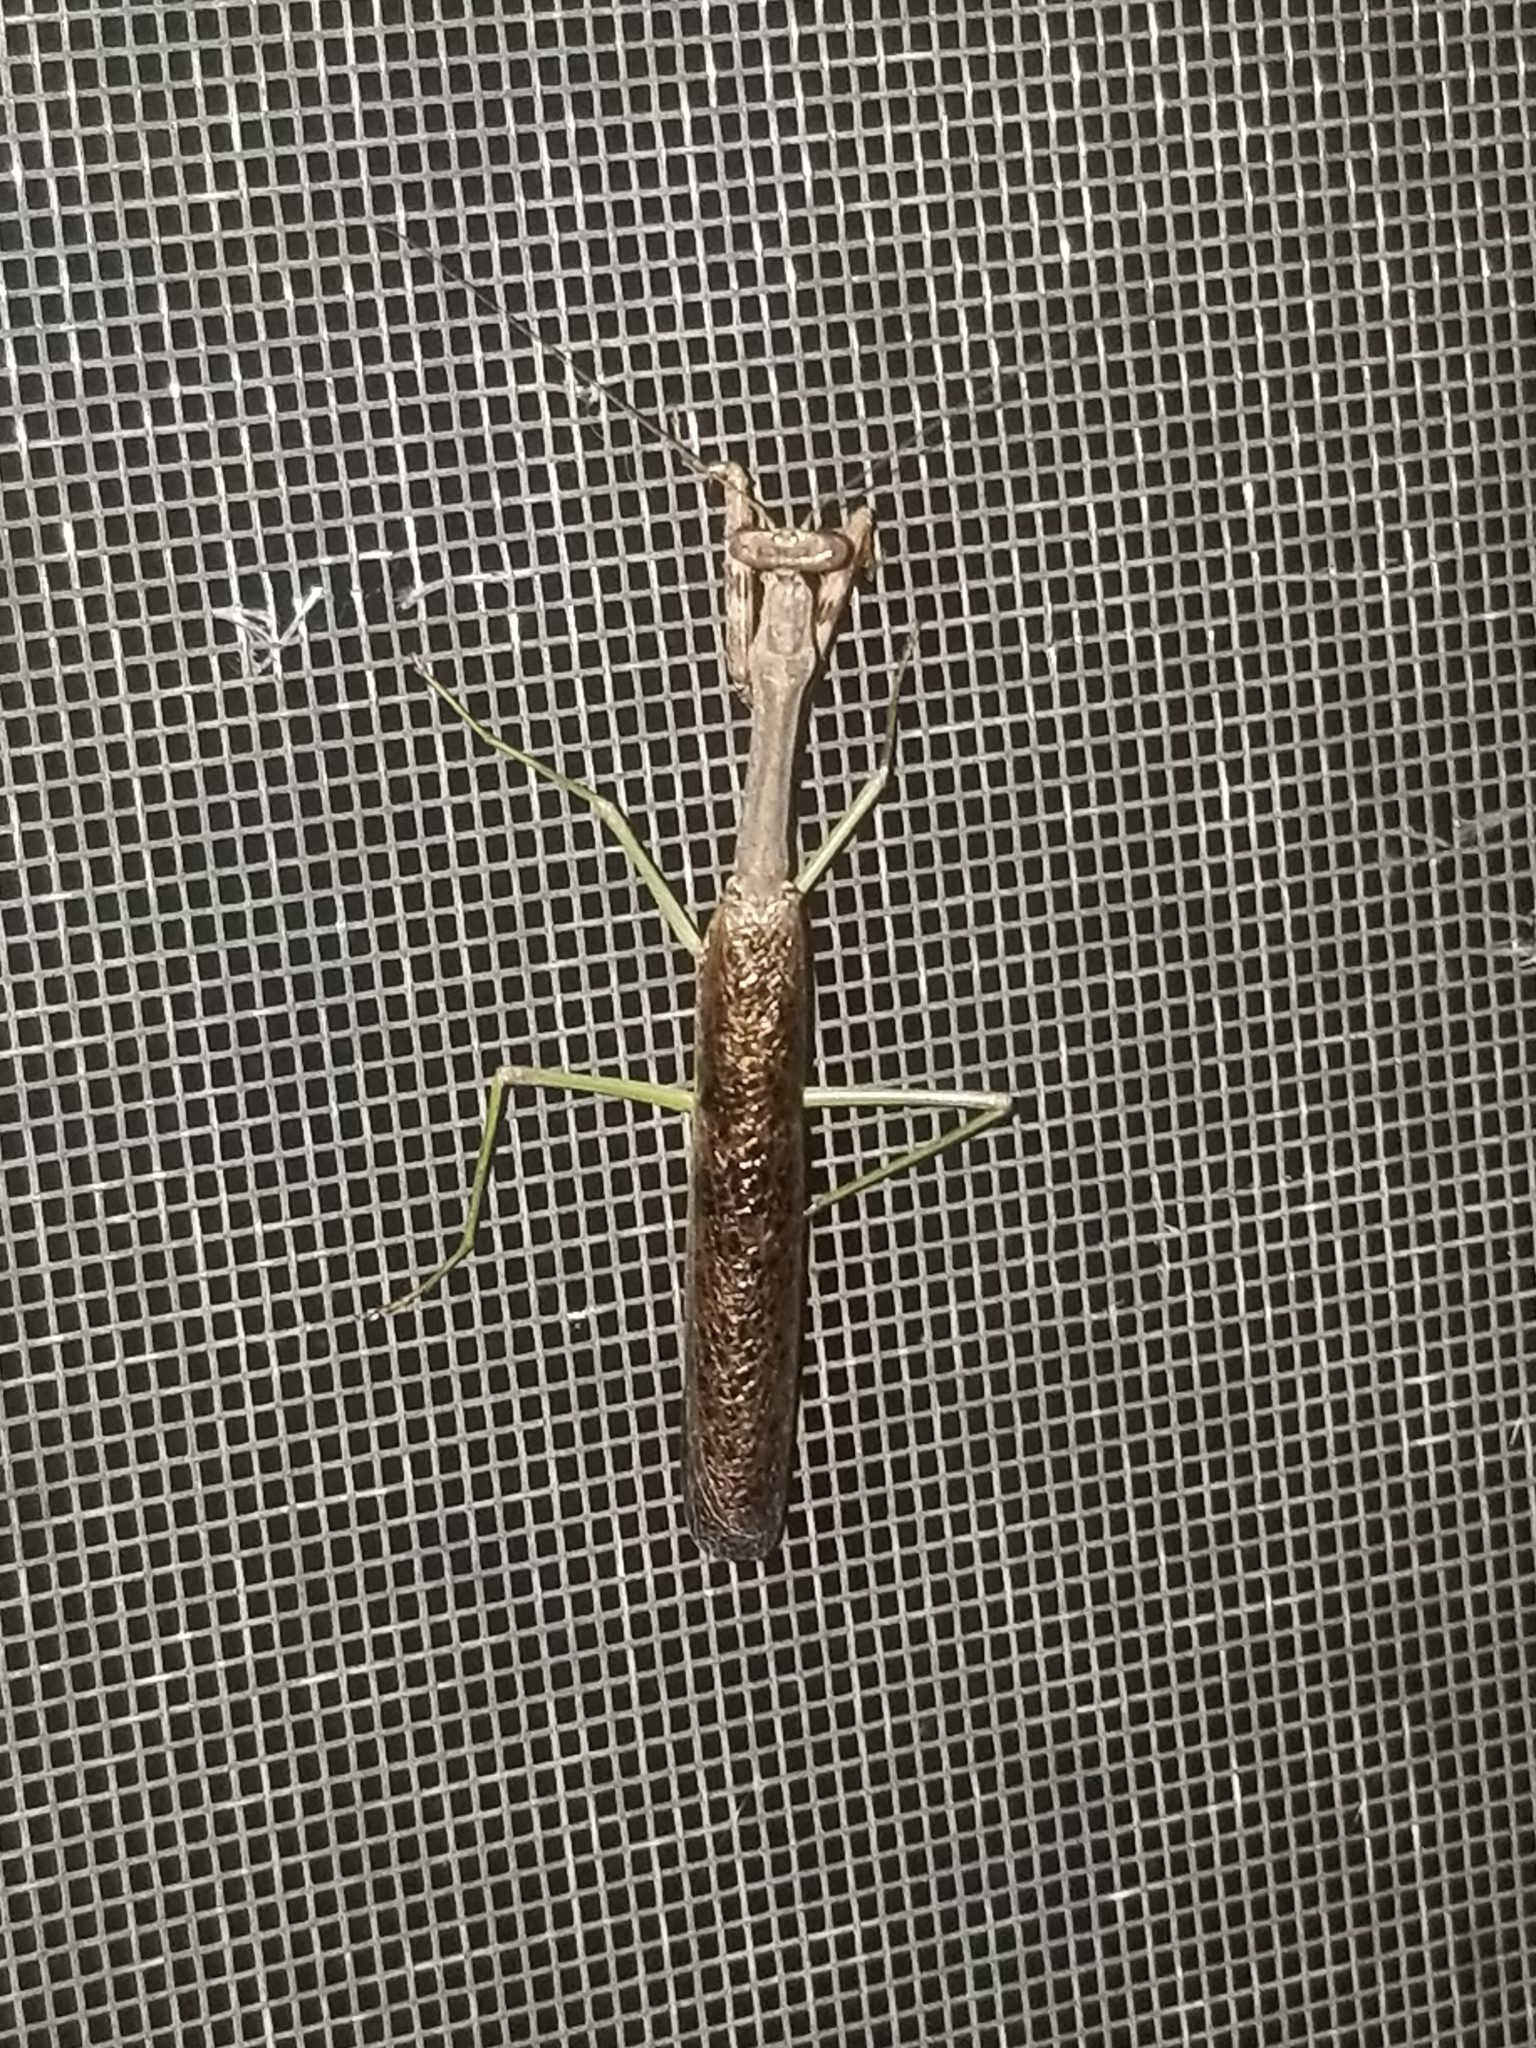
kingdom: Animalia
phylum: Arthropoda
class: Insecta
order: Mantodea
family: Mantidae
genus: Stagmomantis
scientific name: Stagmomantis carolina
